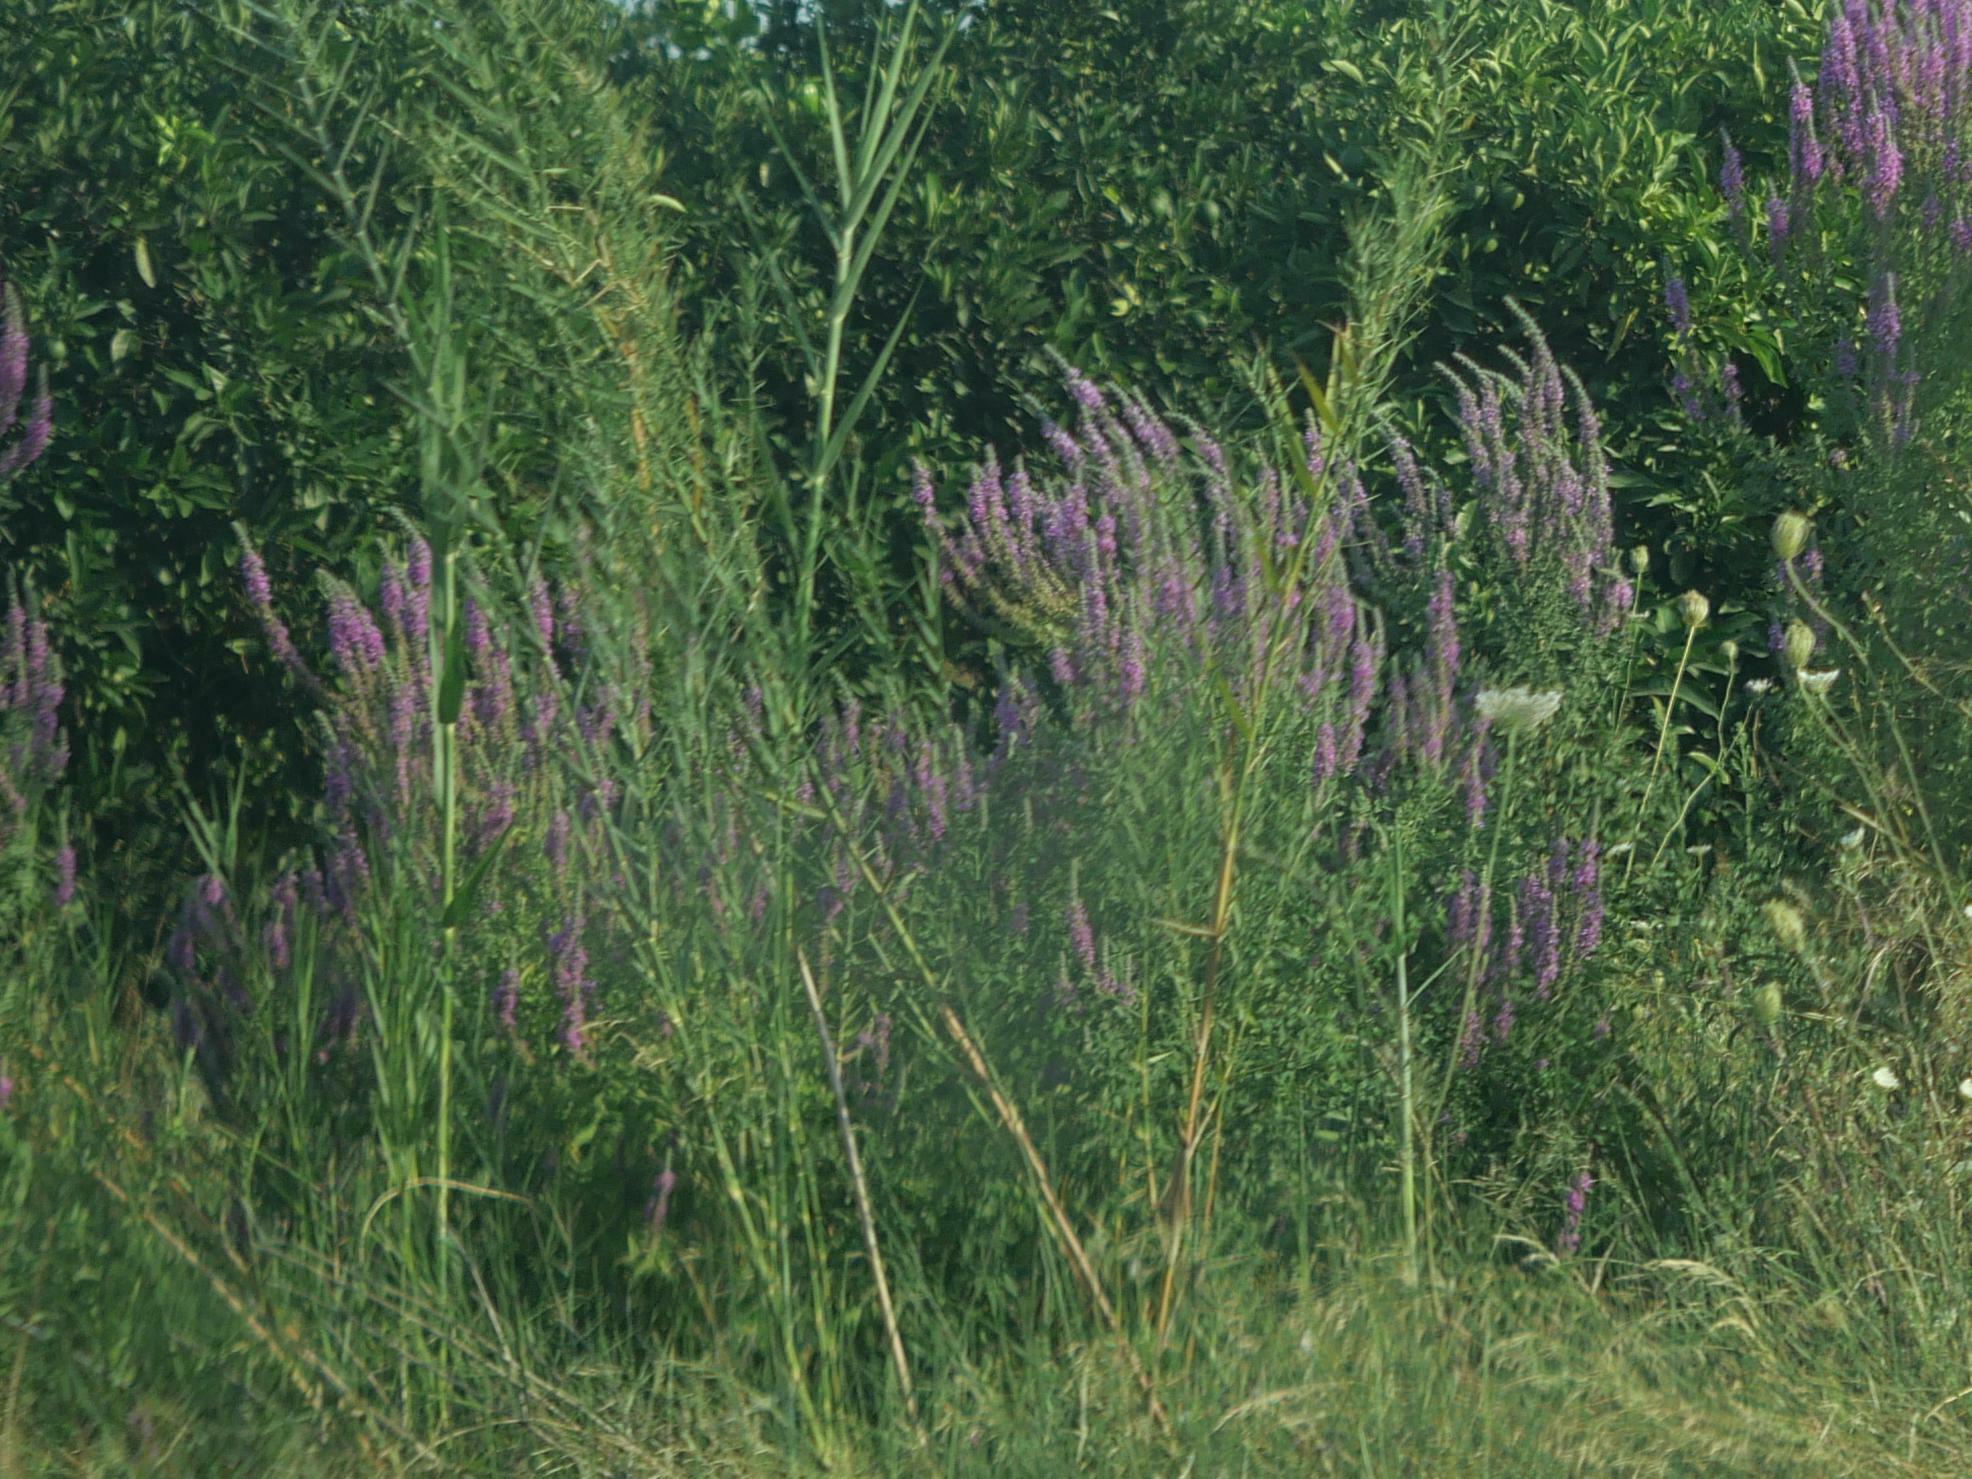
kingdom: Plantae
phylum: Tracheophyta
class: Magnoliopsida
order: Myrtales
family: Lythraceae
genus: Lythrum
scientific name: Lythrum salicaria
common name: Purple loosestrife
